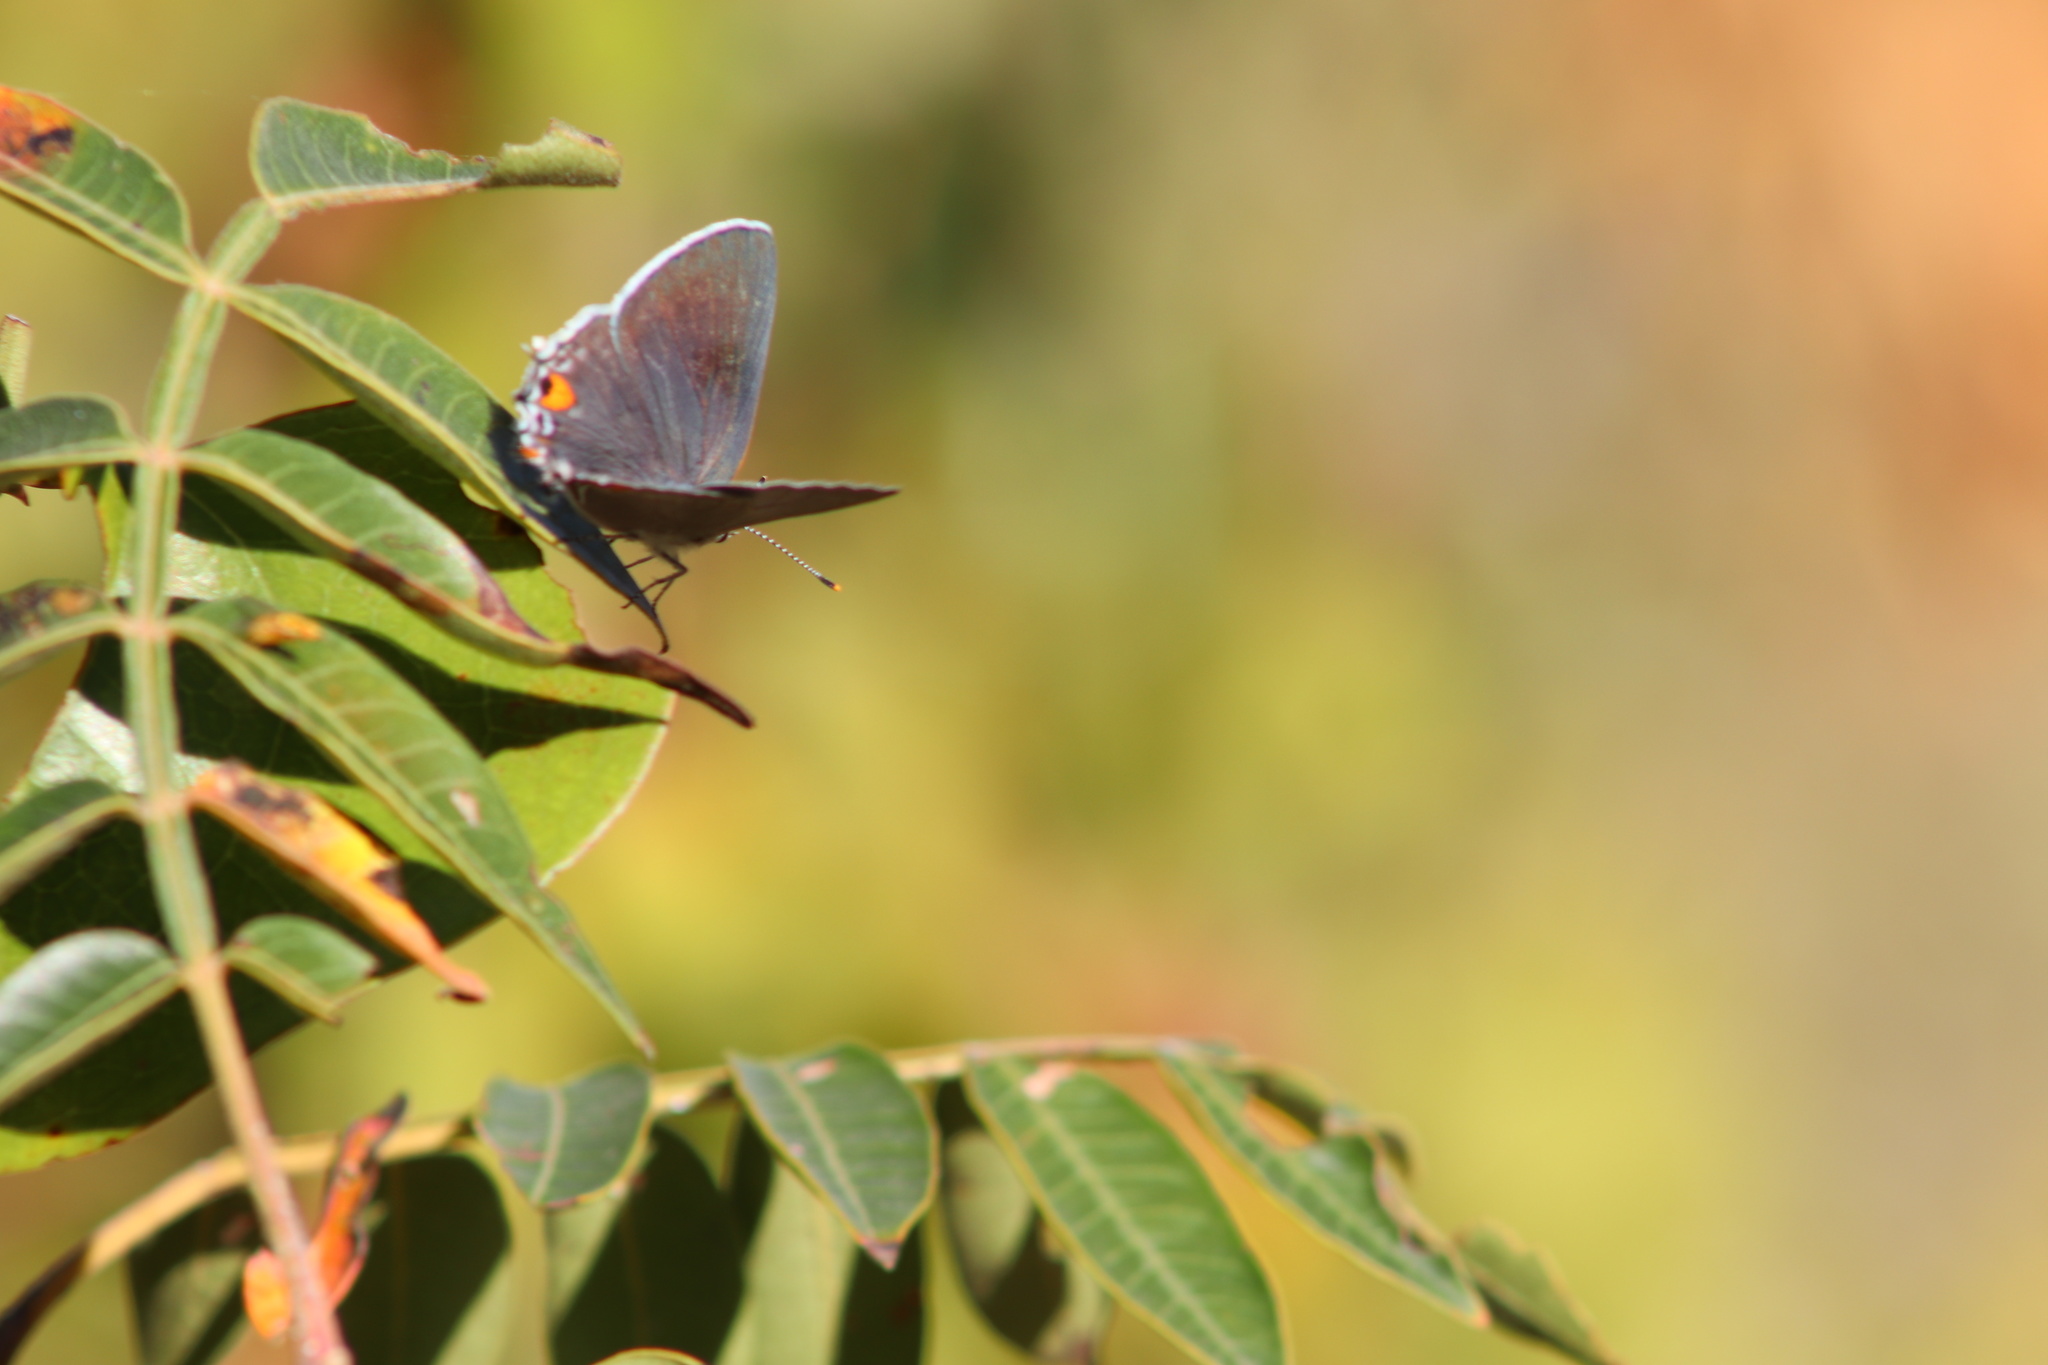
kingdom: Animalia
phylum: Arthropoda
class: Insecta
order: Lepidoptera
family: Lycaenidae
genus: Strymon
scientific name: Strymon melinus
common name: Gray hairstreak
